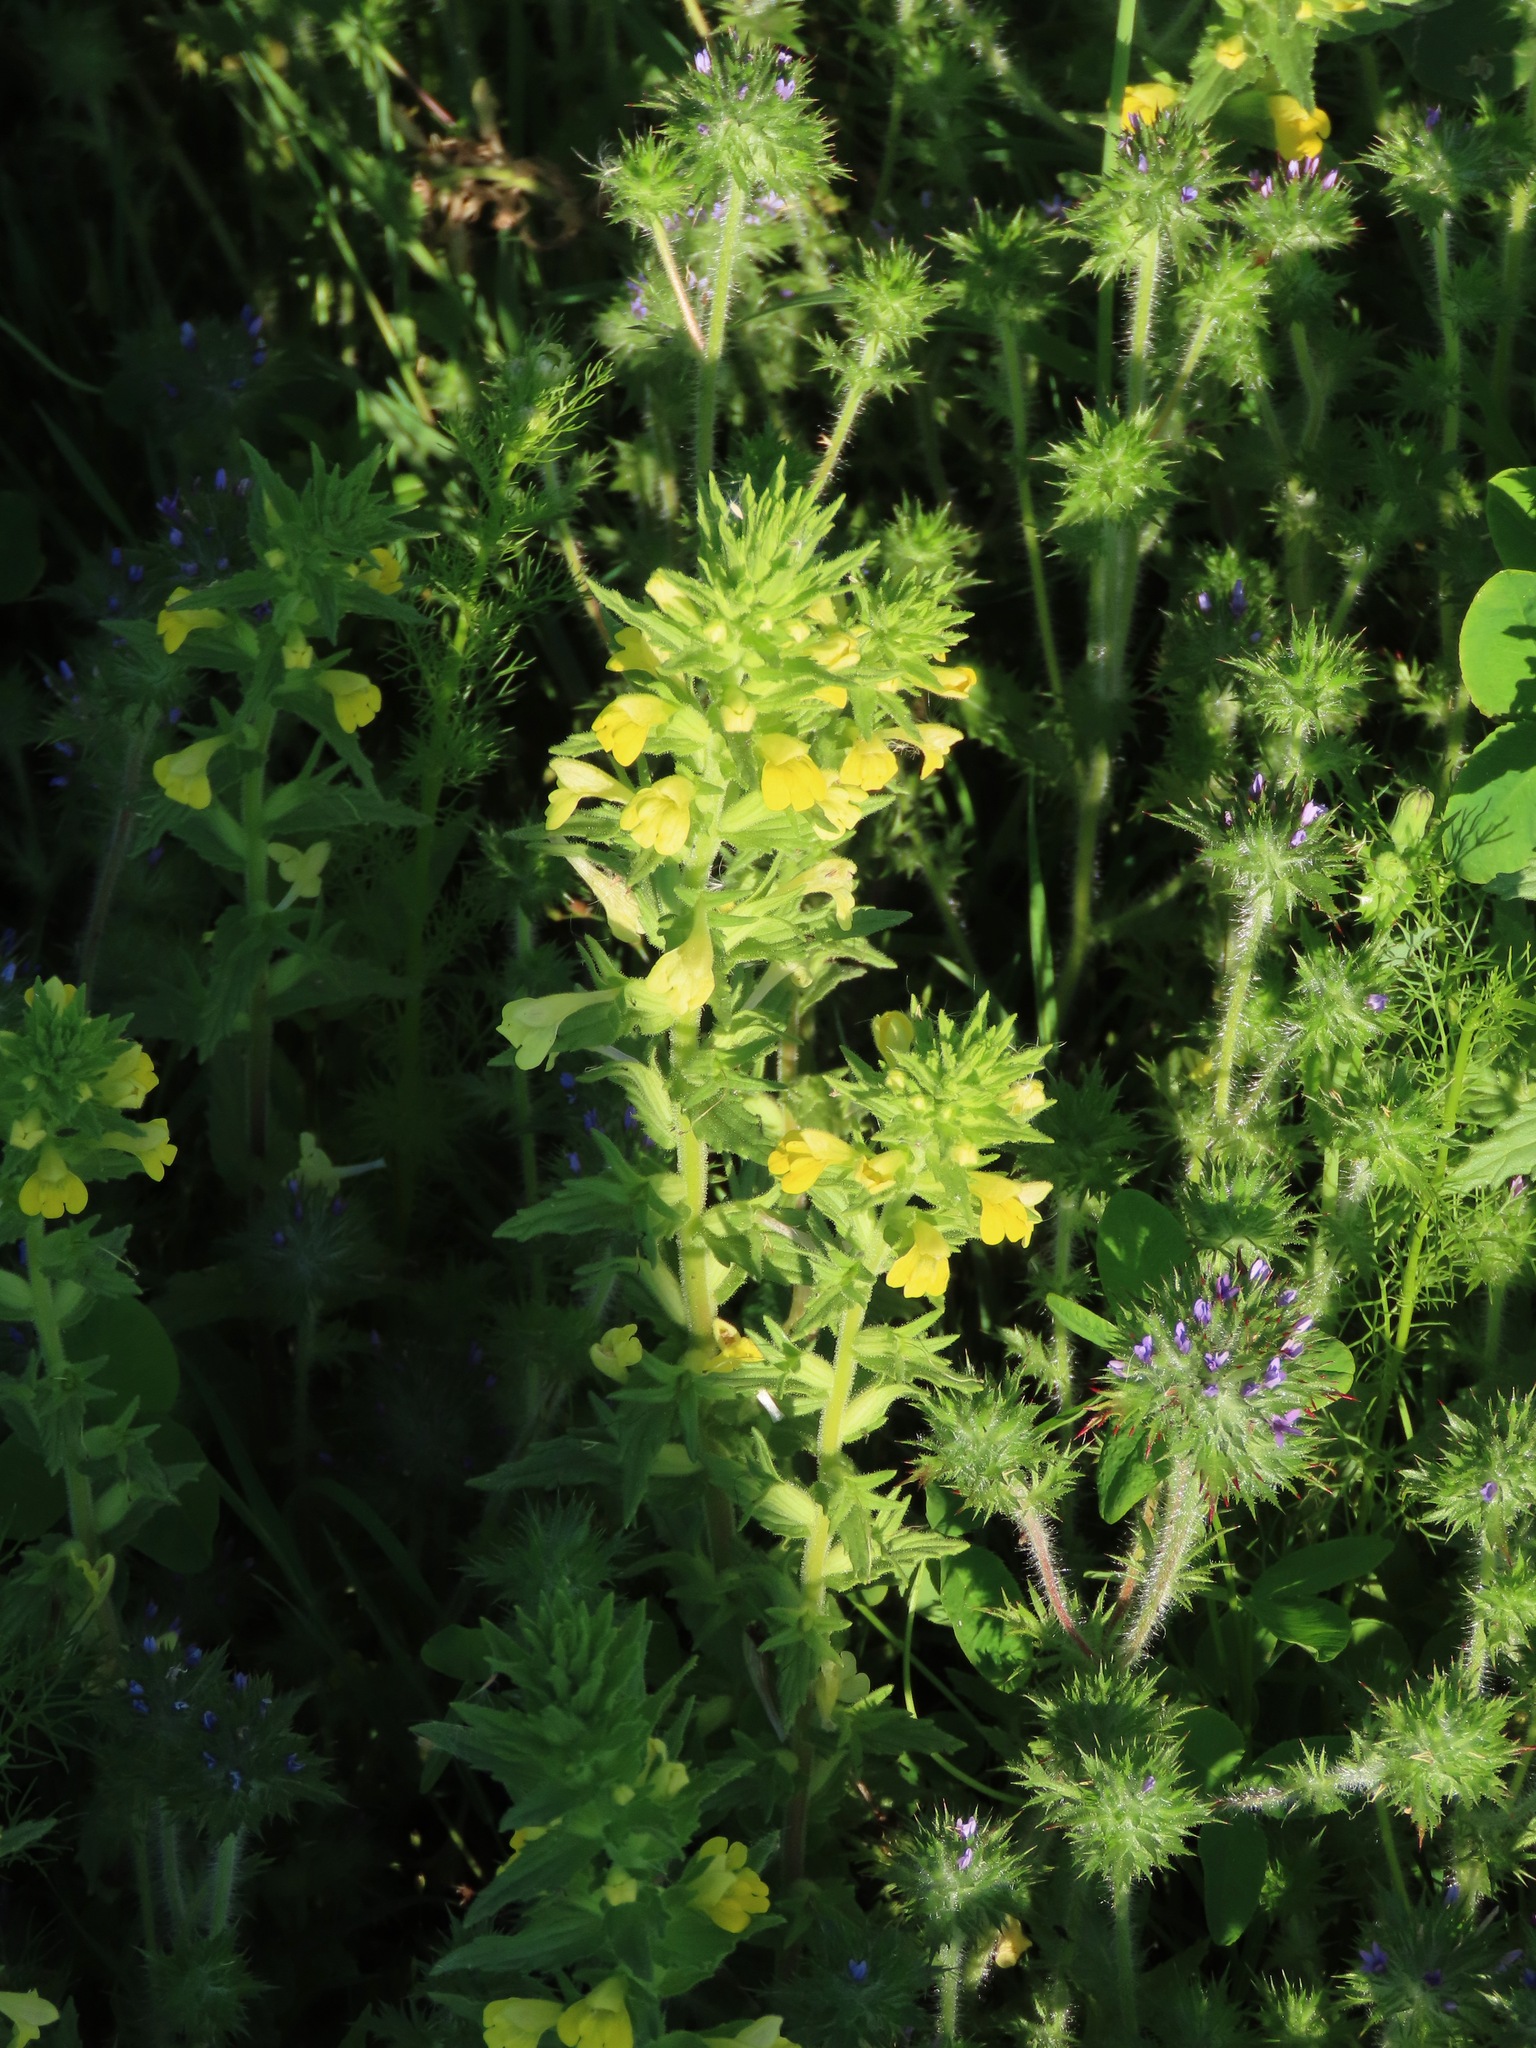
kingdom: Plantae
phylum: Tracheophyta
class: Magnoliopsida
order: Lamiales
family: Orobanchaceae
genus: Bellardia
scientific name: Bellardia viscosa
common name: Sticky parentucellia
